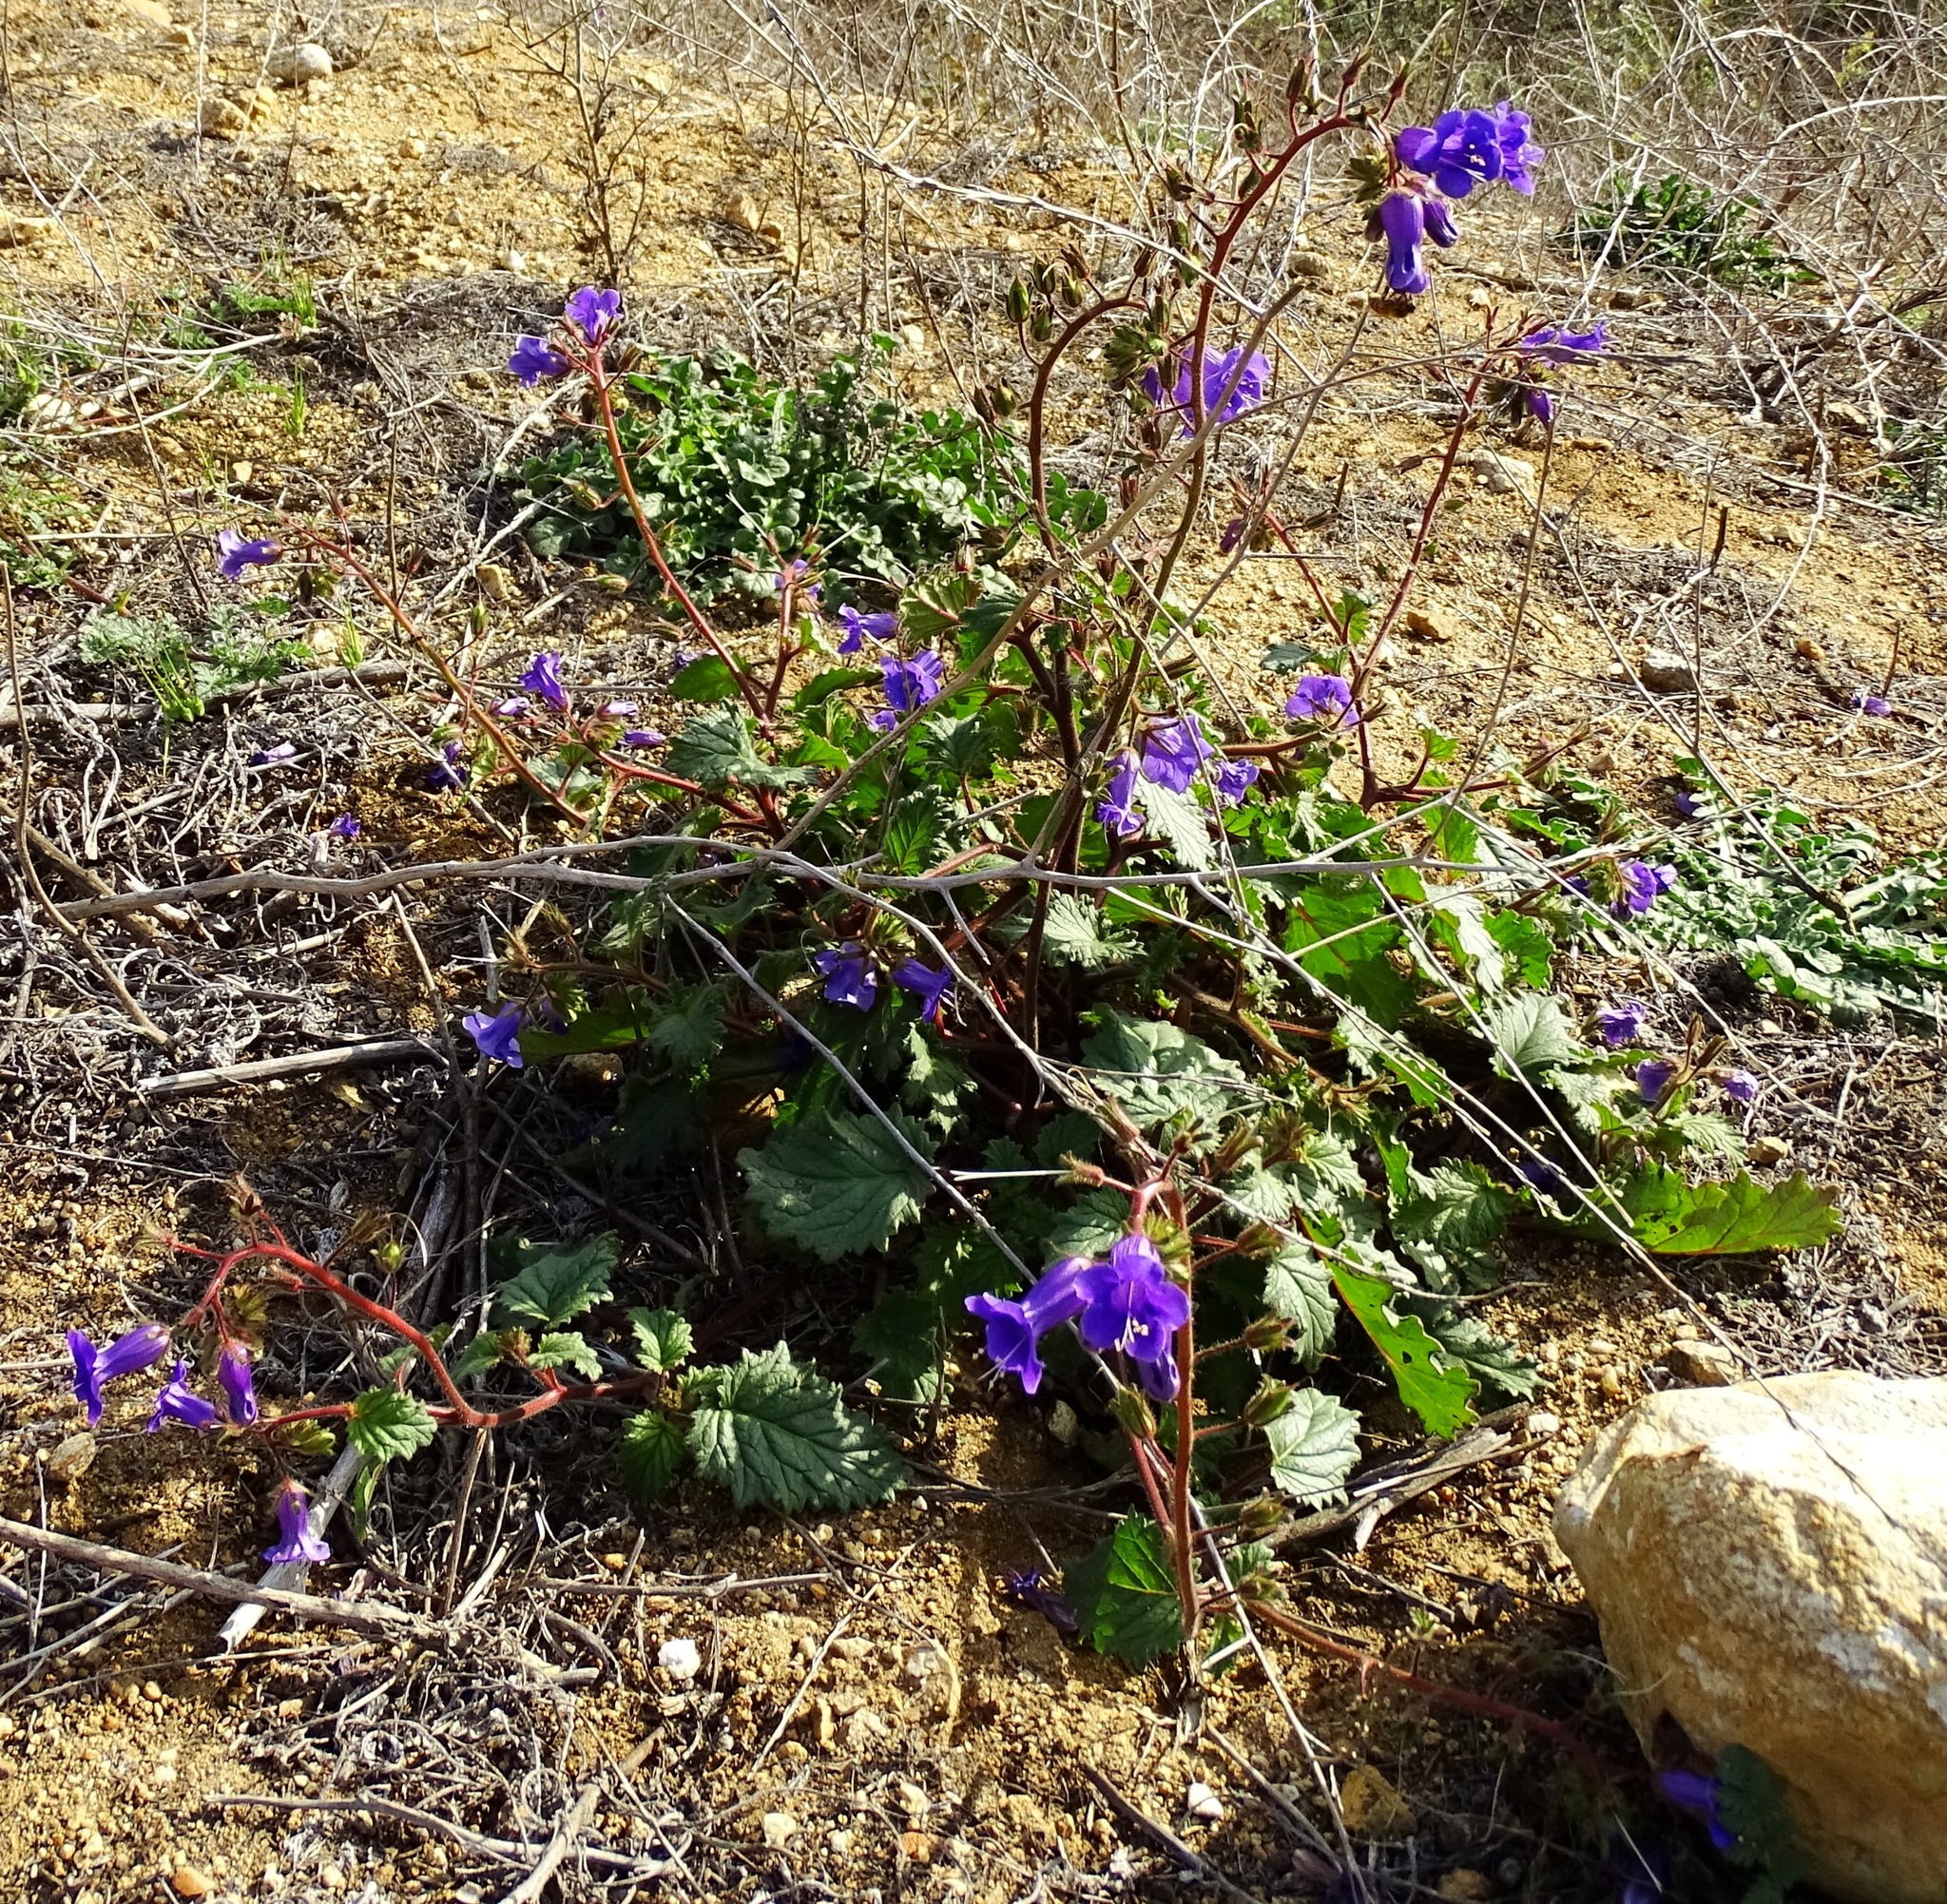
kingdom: Plantae
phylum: Tracheophyta
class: Magnoliopsida
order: Boraginales
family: Hydrophyllaceae
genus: Phacelia
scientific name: Phacelia minor
